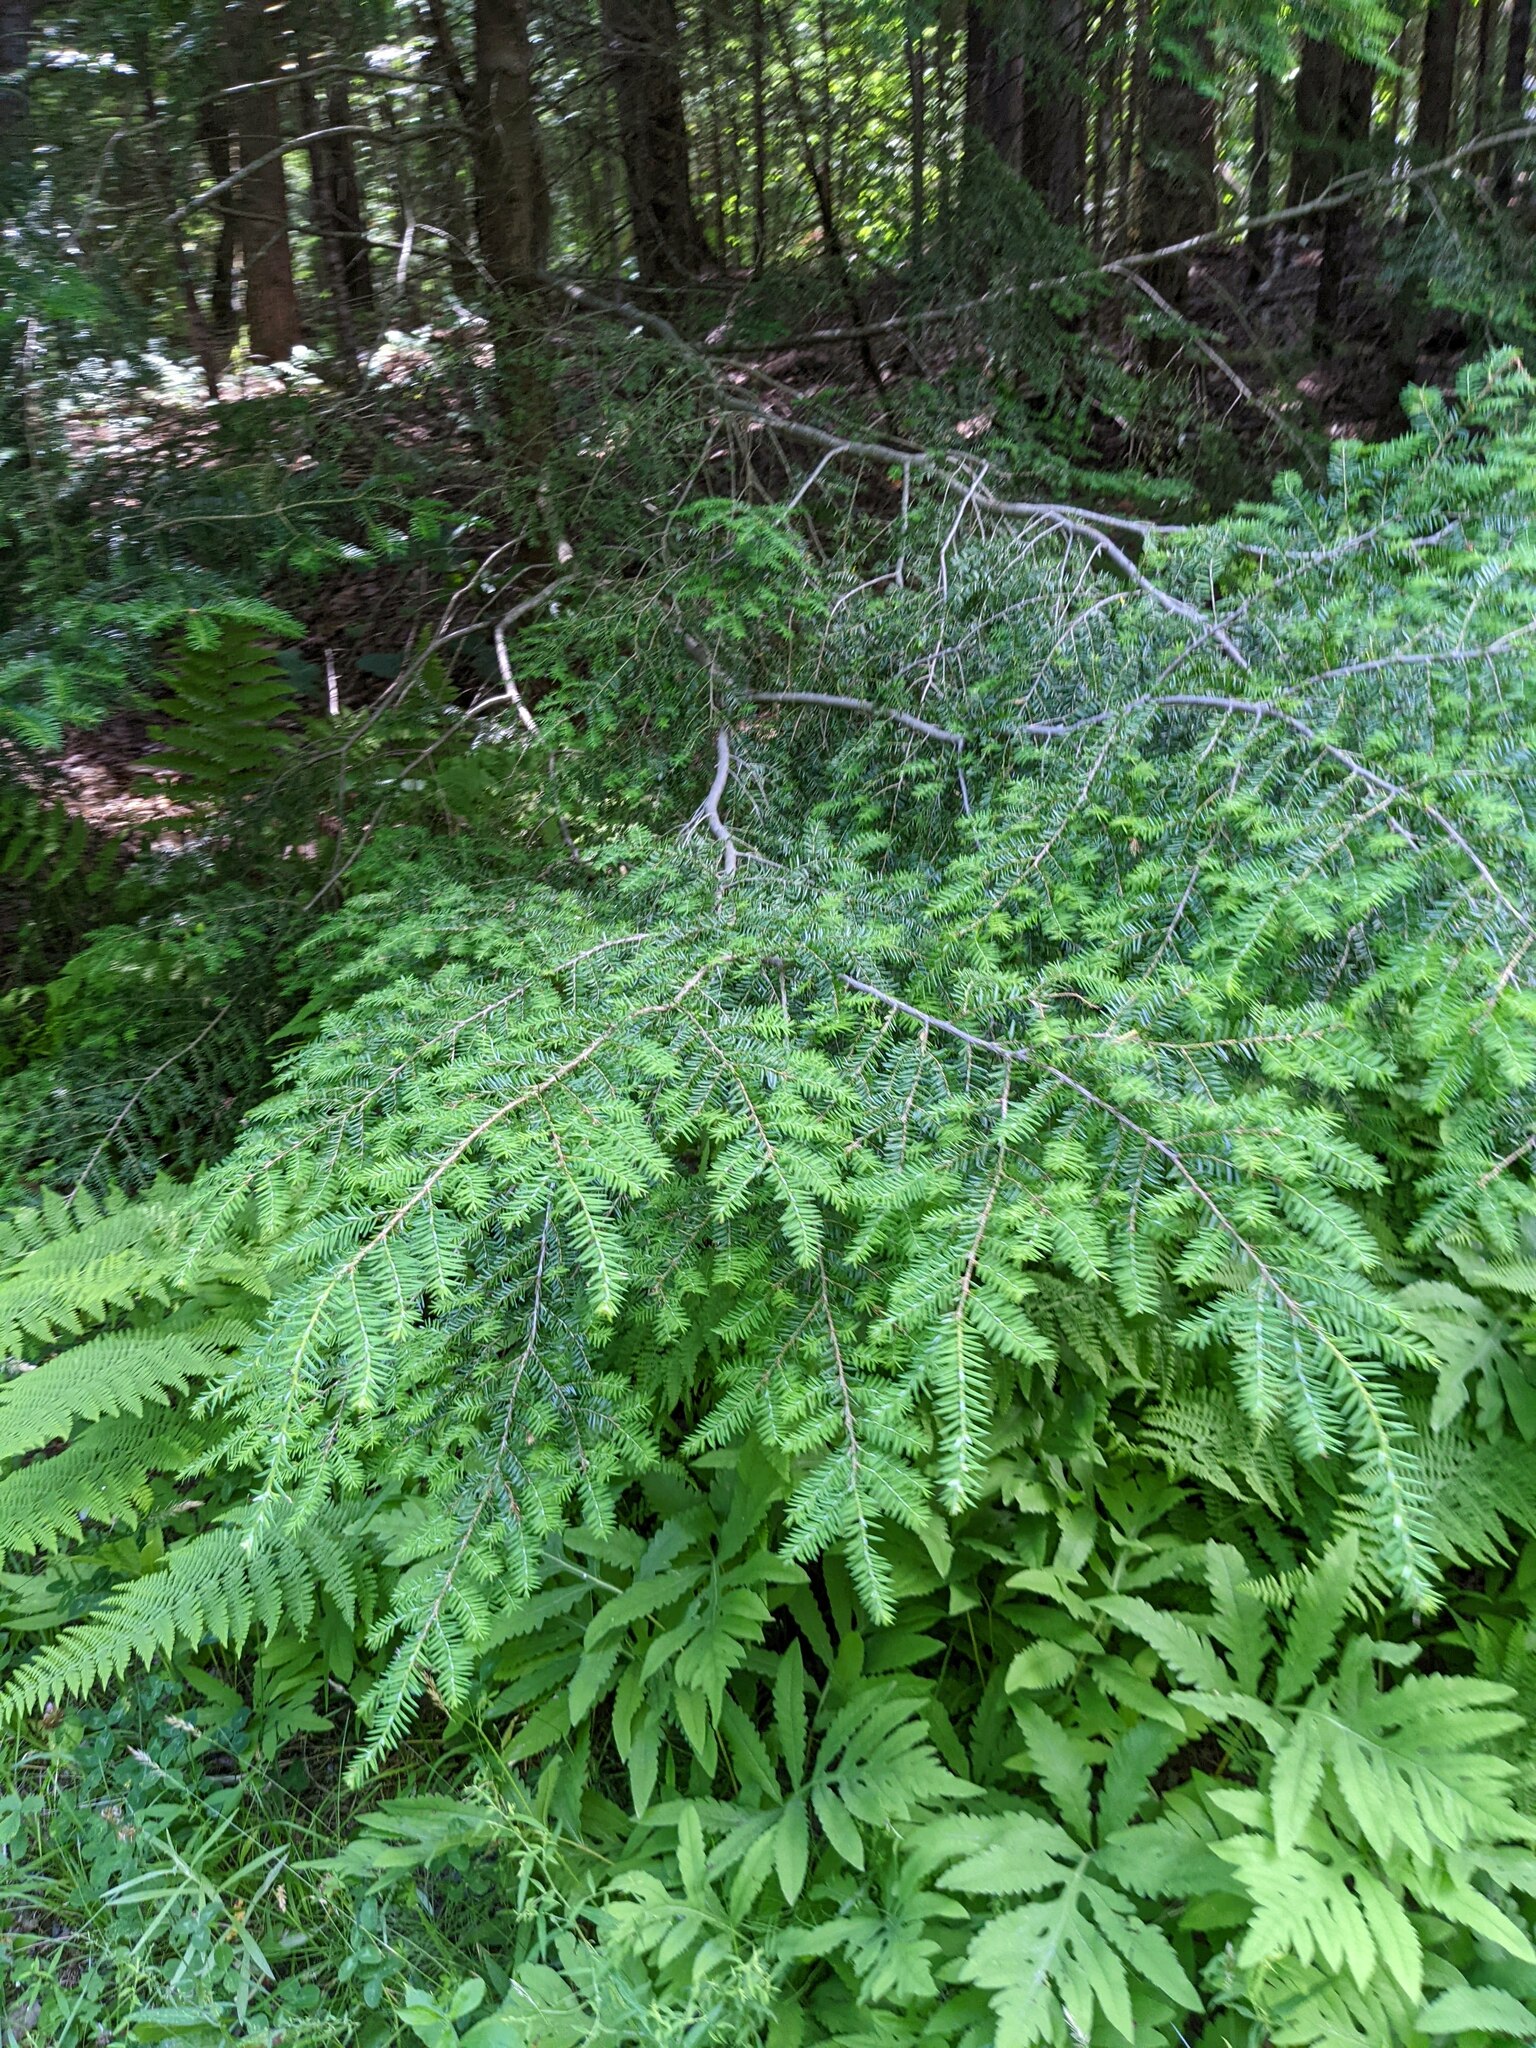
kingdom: Plantae
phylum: Tracheophyta
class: Pinopsida
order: Pinales
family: Pinaceae
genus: Tsuga
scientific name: Tsuga canadensis
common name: Eastern hemlock
